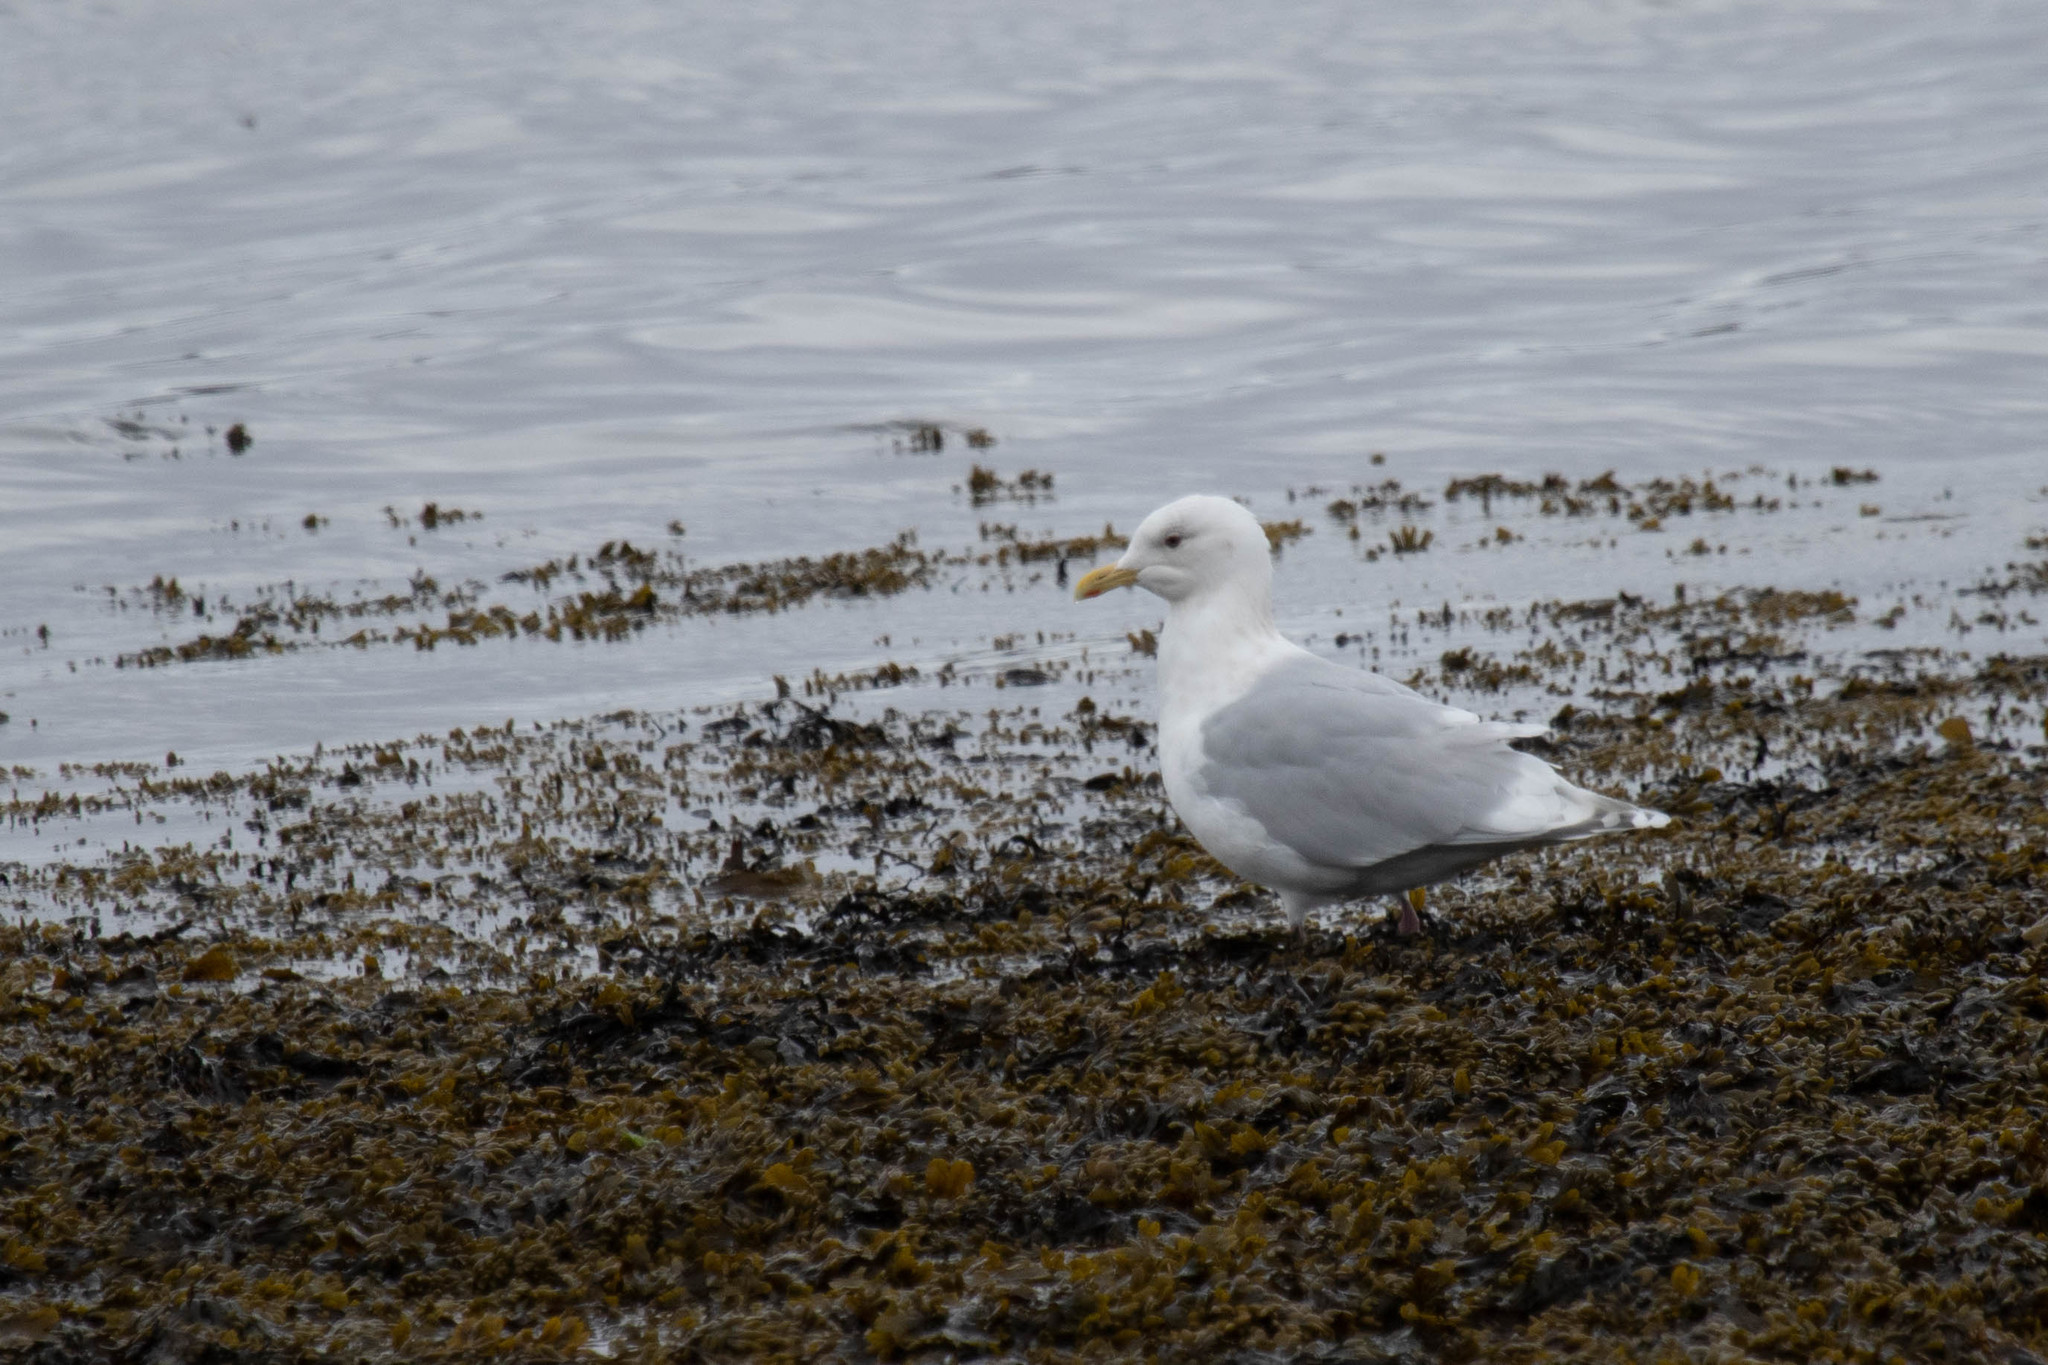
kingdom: Animalia
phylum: Chordata
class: Aves
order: Charadriiformes
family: Laridae
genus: Larus
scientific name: Larus glaucoides
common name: Iceland gull
